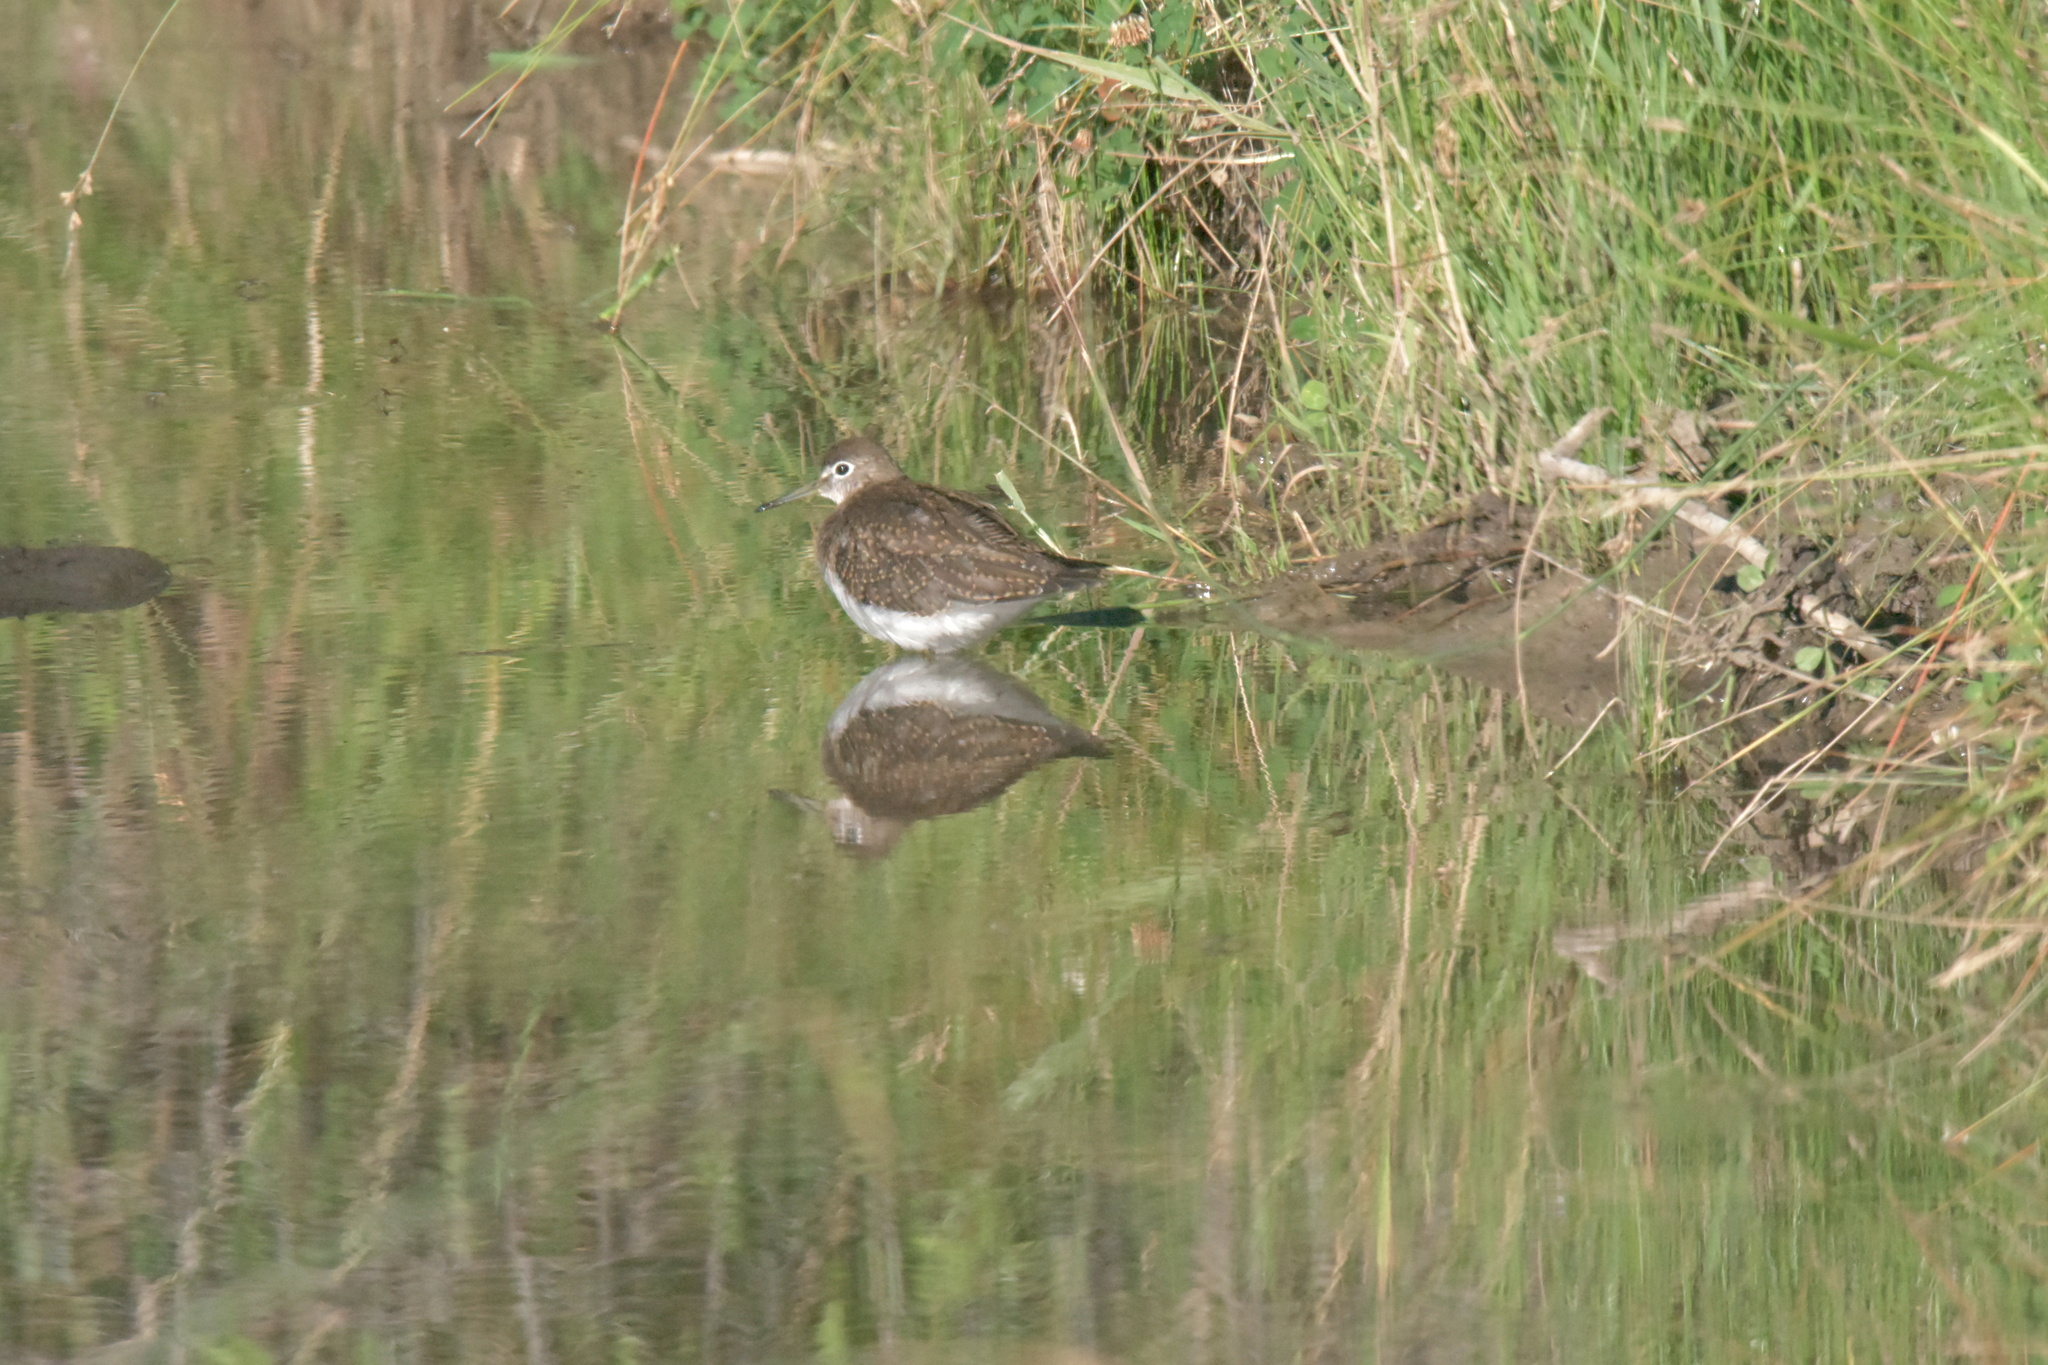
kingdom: Animalia
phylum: Chordata
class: Aves
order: Charadriiformes
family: Scolopacidae
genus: Tringa
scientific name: Tringa solitaria
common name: Solitary sandpiper
